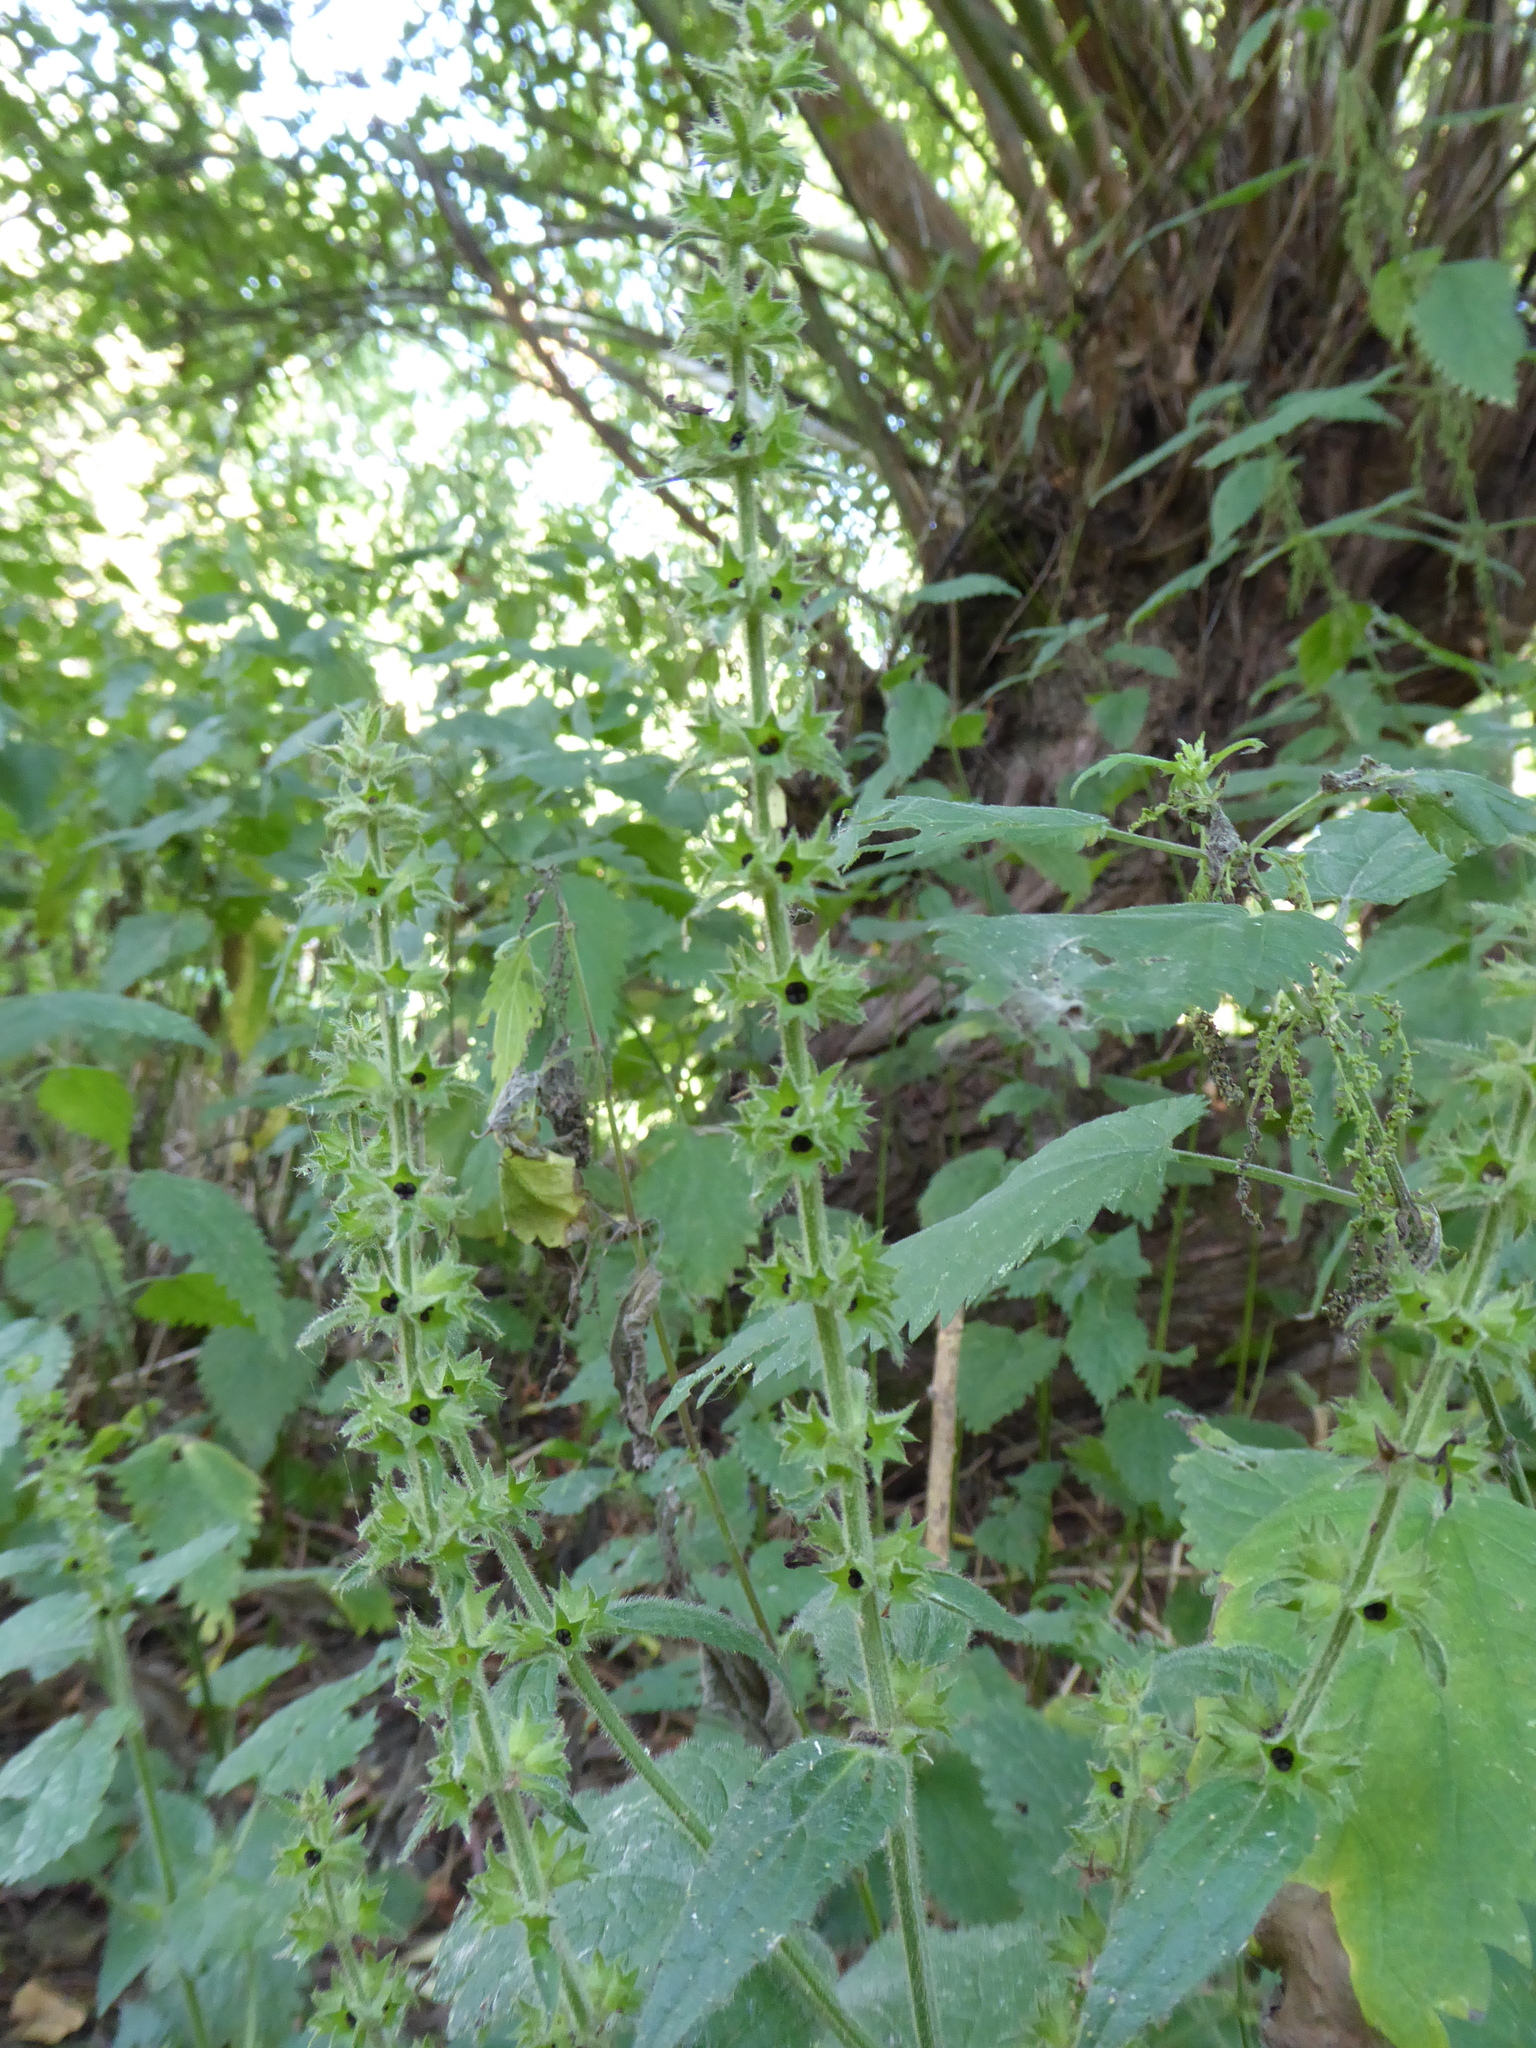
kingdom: Plantae
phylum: Tracheophyta
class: Magnoliopsida
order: Lamiales
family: Lamiaceae
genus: Stachys
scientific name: Stachys sylvatica
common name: Hedge woundwort
